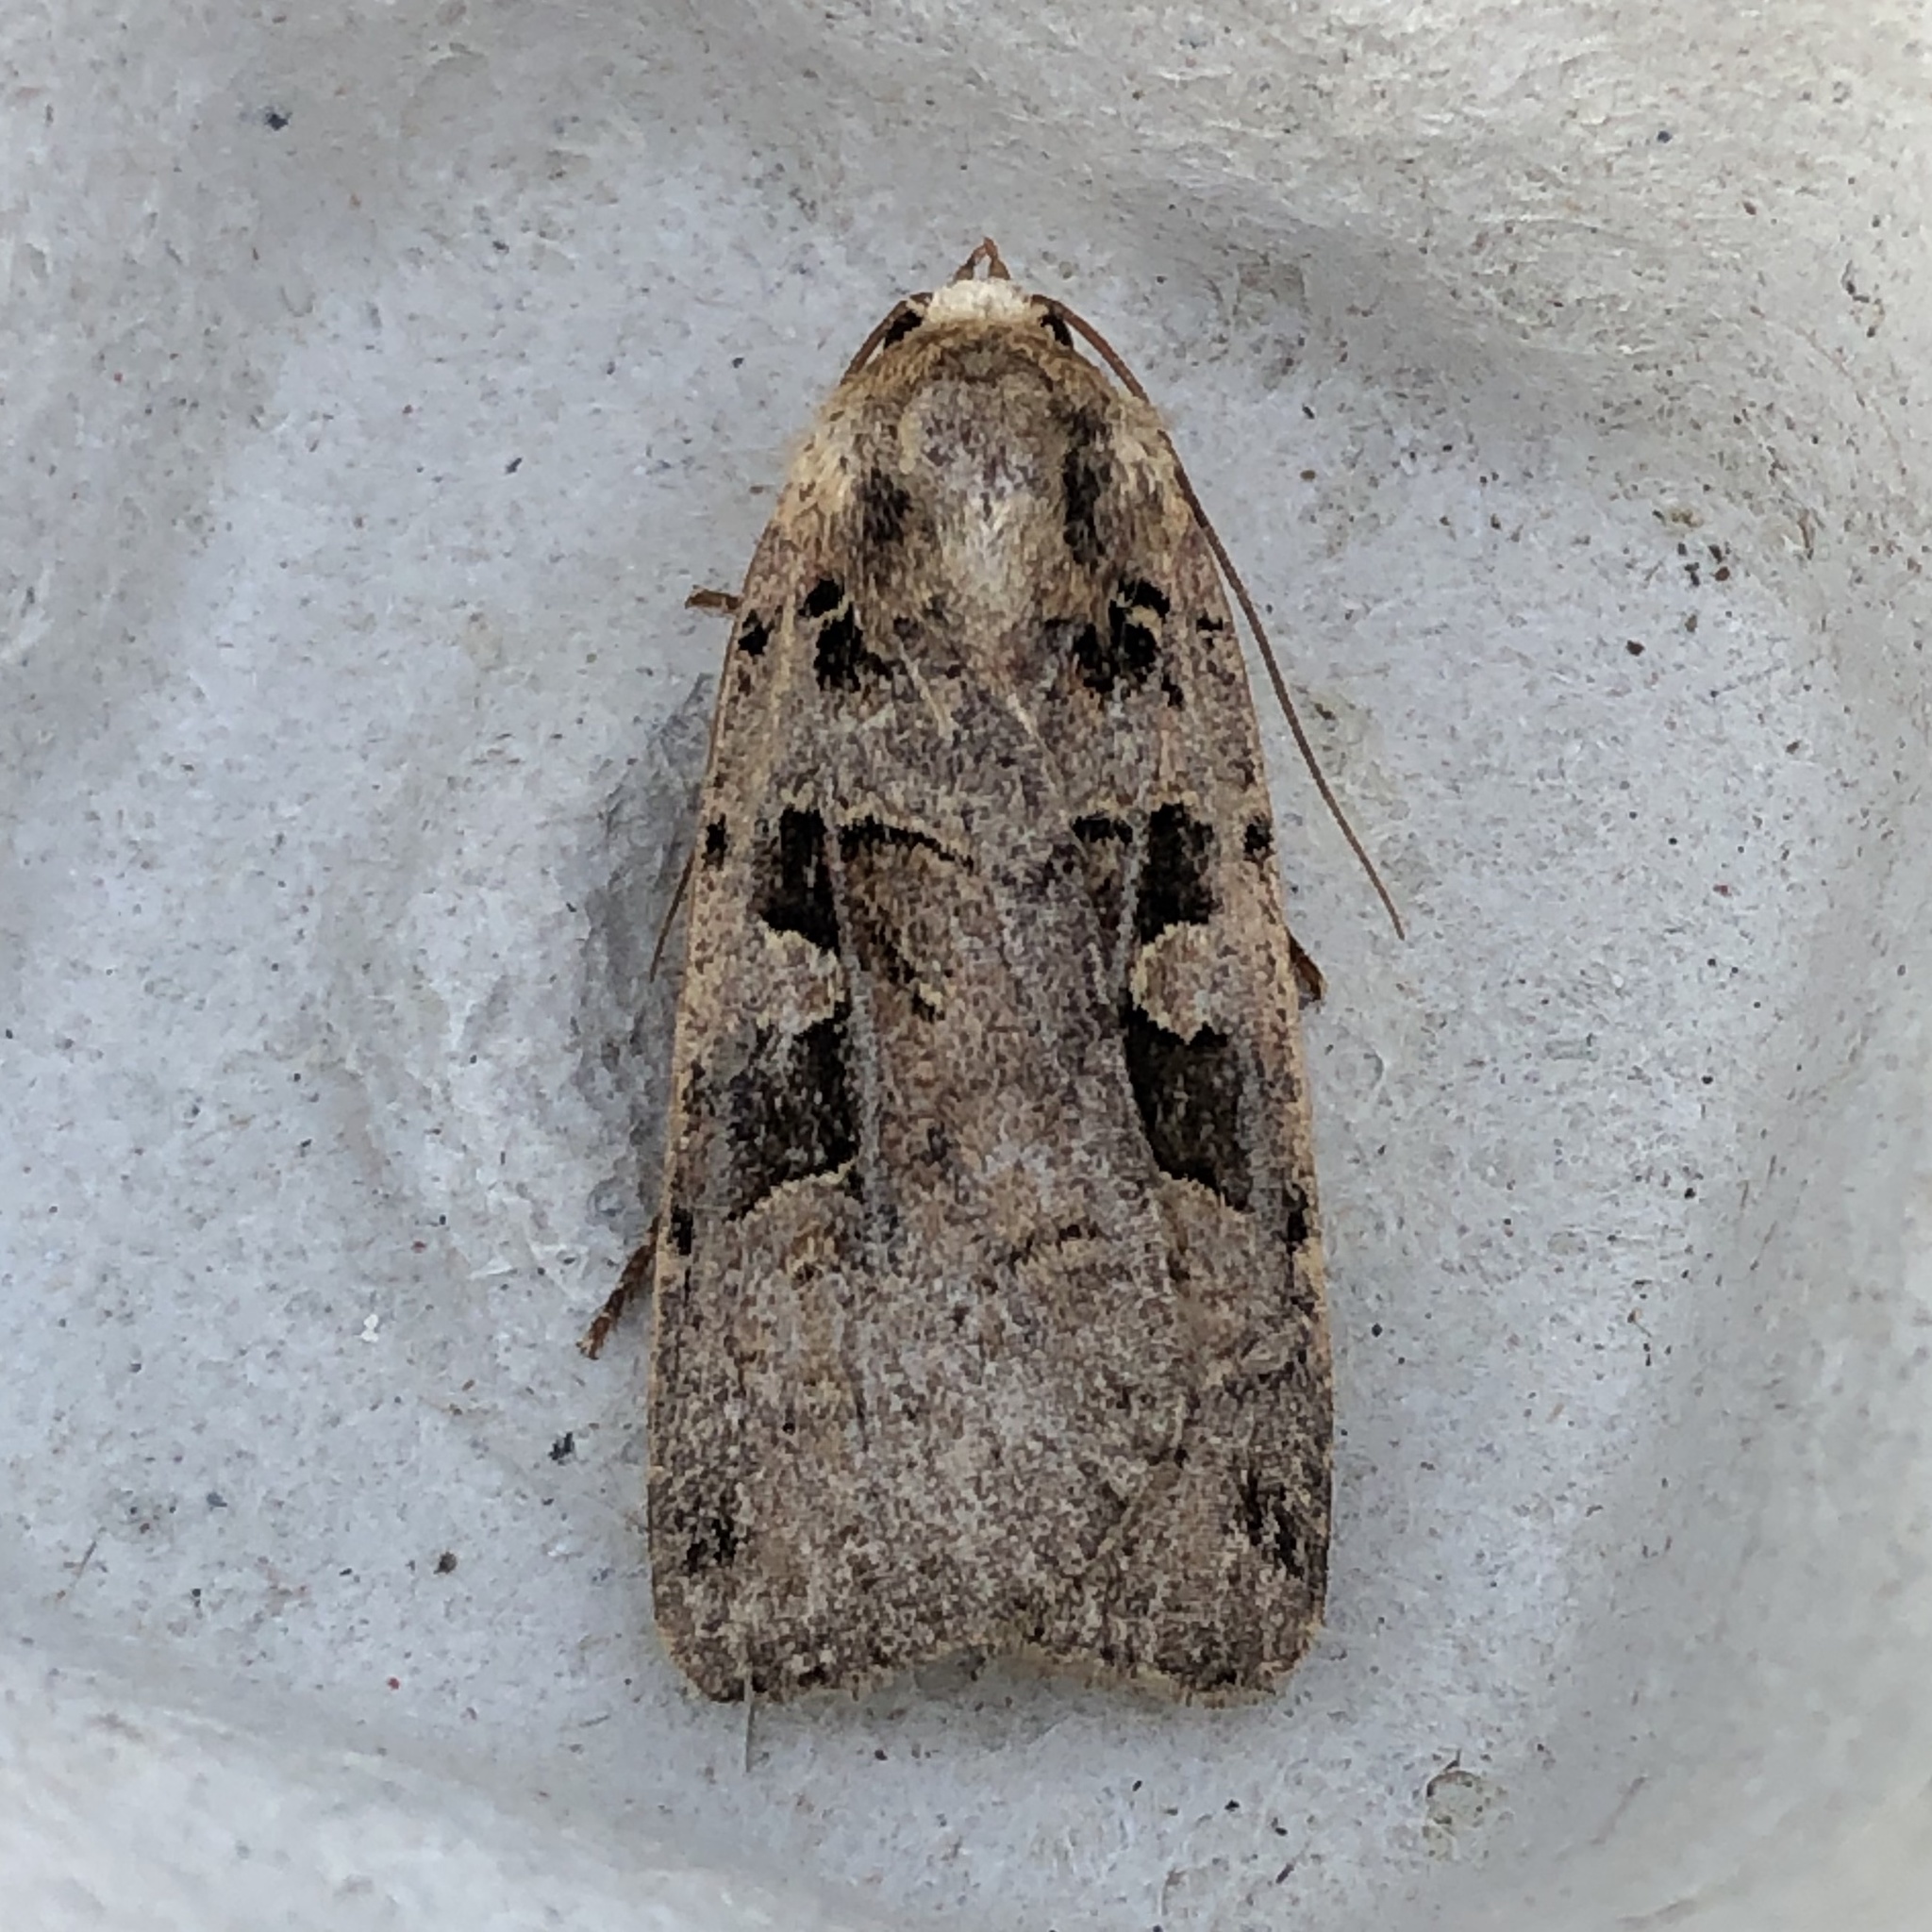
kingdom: Animalia
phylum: Arthropoda
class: Insecta
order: Lepidoptera
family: Noctuidae
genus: Xestia
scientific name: Xestia triangulum
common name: Double square-spot
